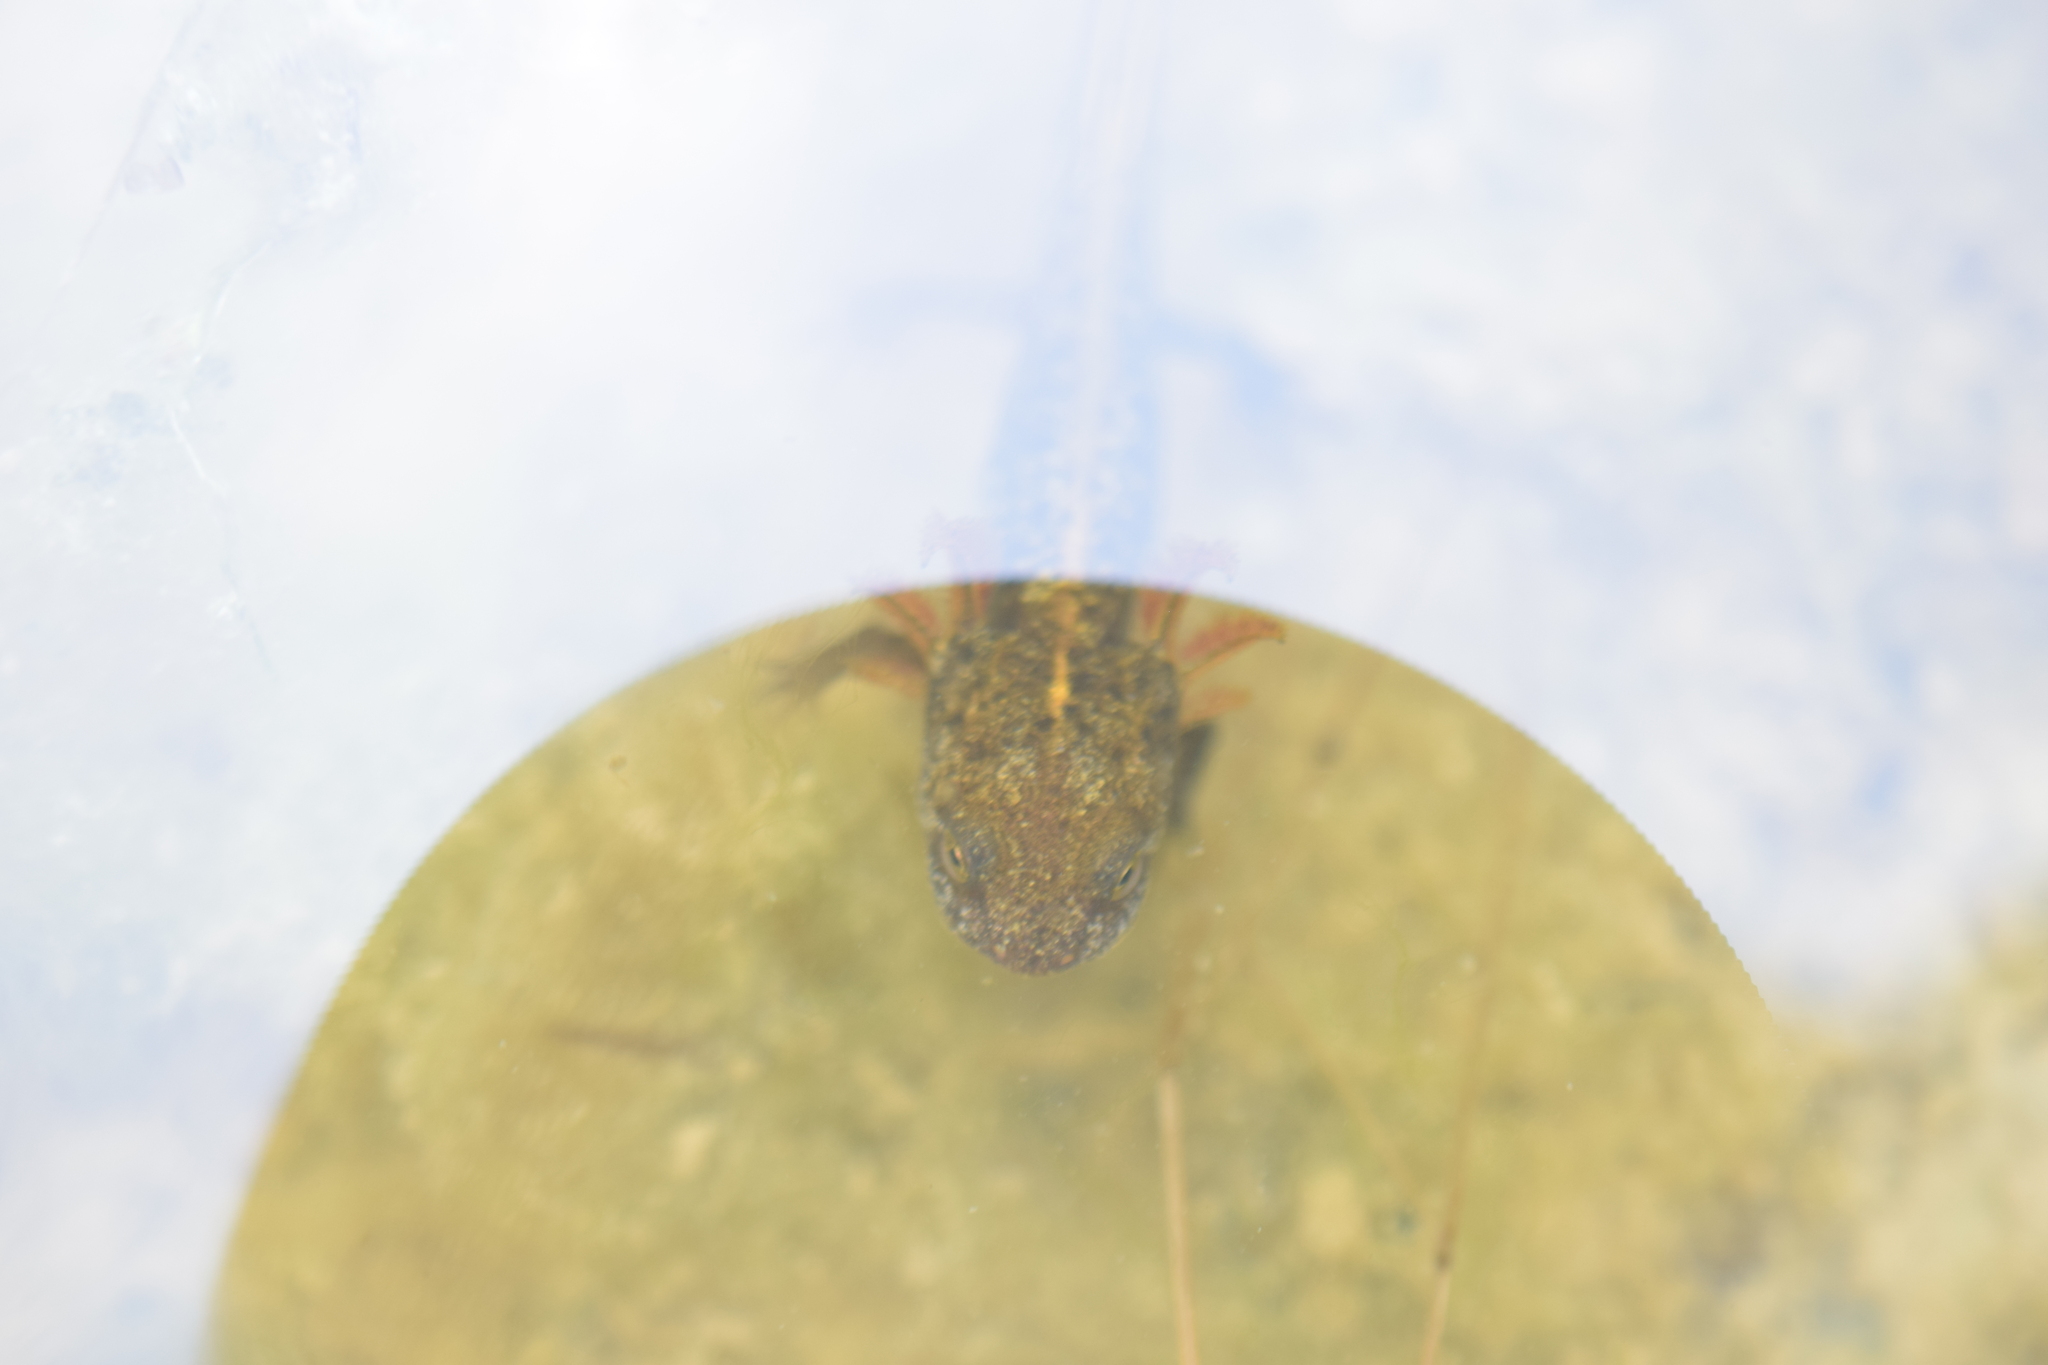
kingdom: Animalia
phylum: Chordata
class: Amphibia
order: Caudata
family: Salamandridae
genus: Triturus
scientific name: Triturus carnifex
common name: Italian crested newt
